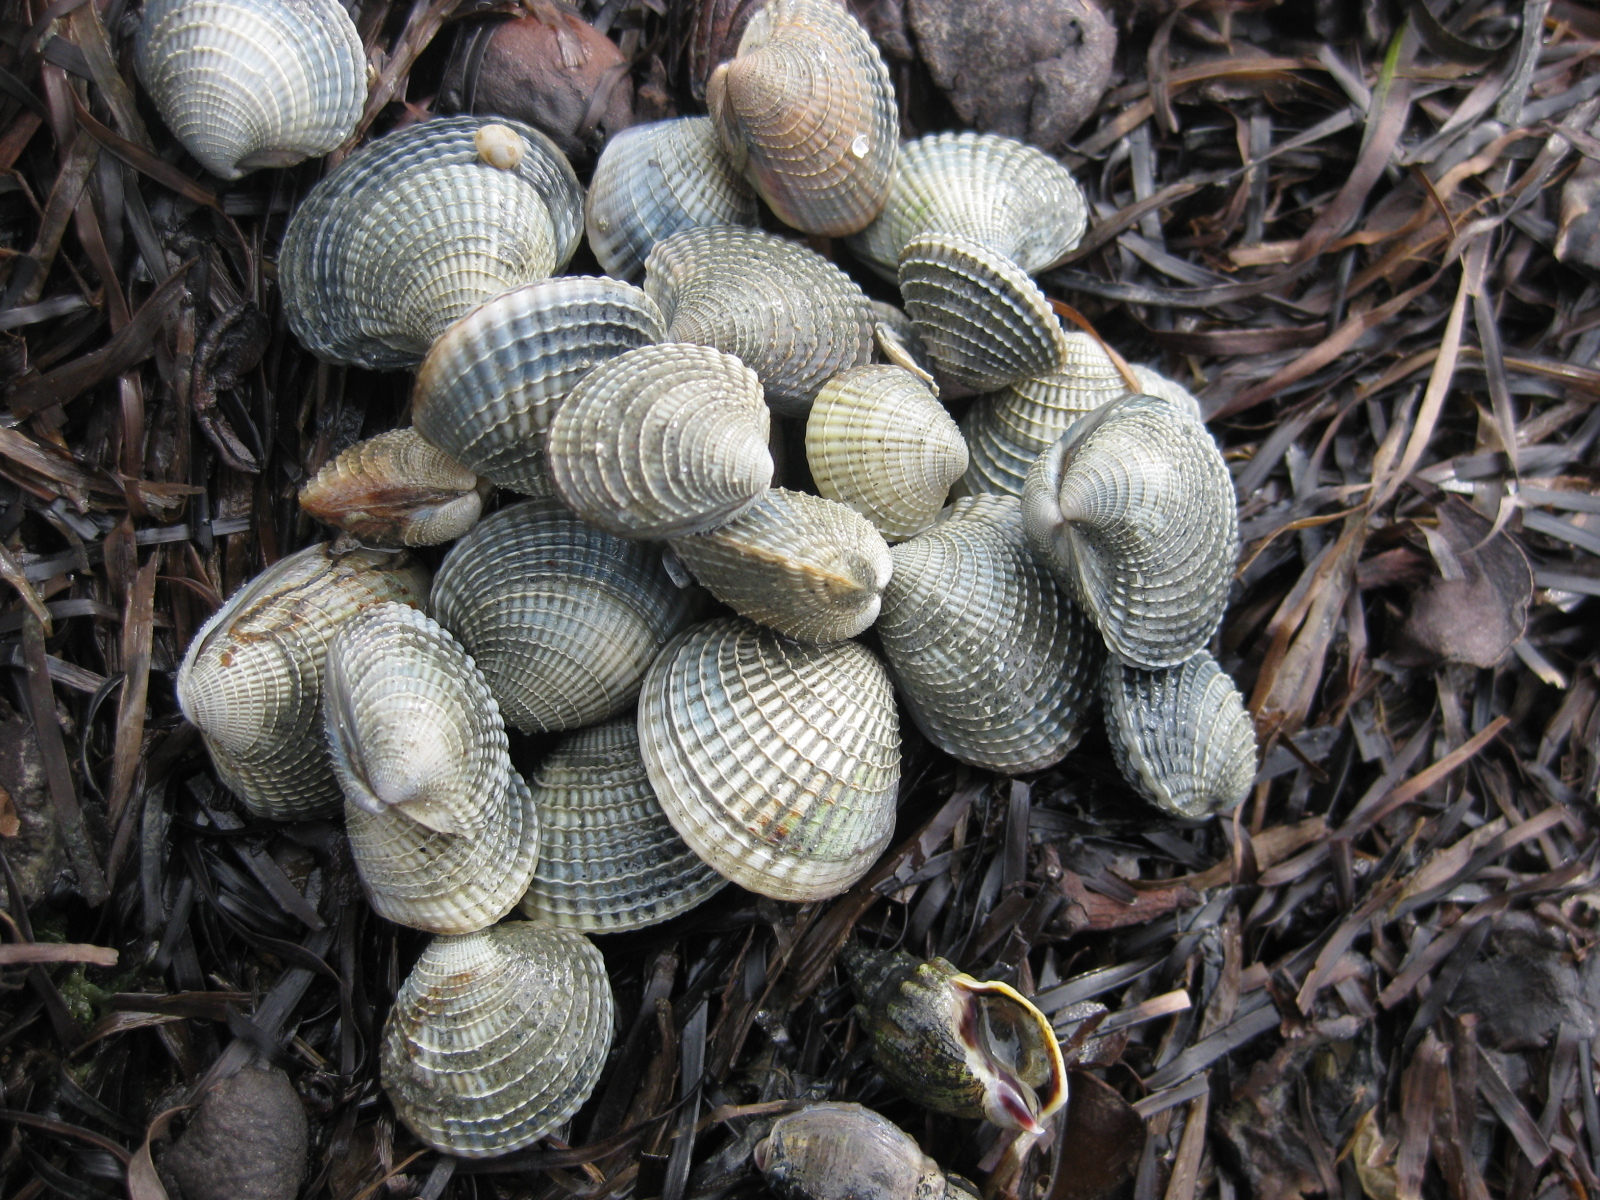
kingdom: Animalia
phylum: Mollusca
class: Bivalvia
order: Venerida
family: Veneridae
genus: Austrovenus
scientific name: Austrovenus stutchburyi
